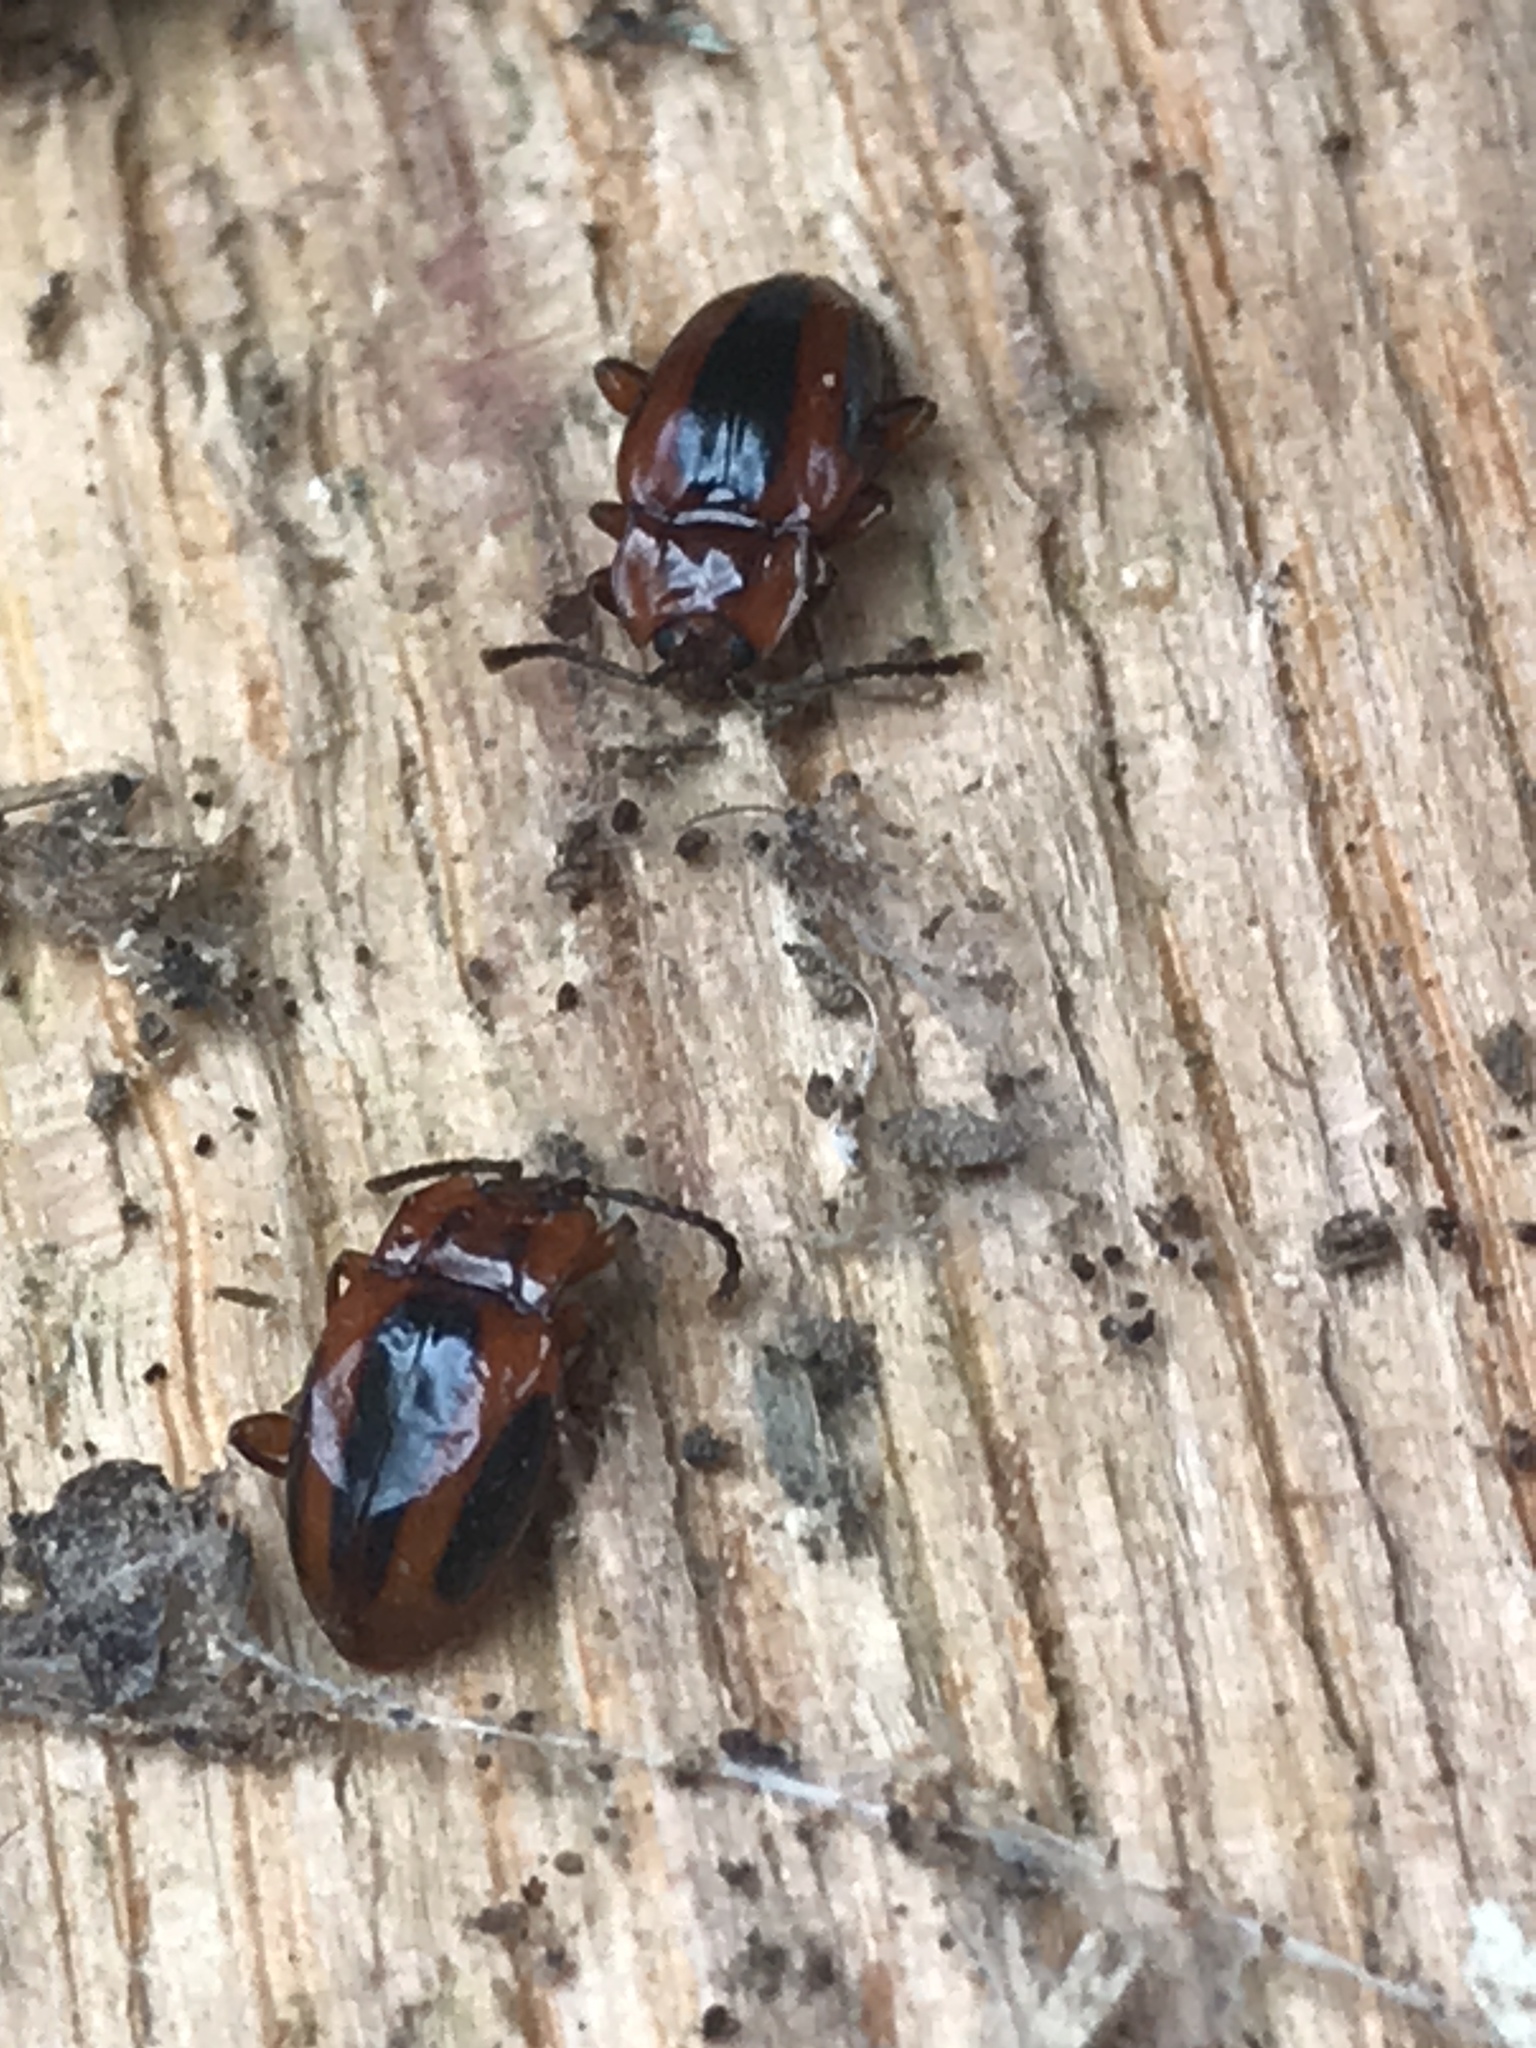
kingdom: Animalia
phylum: Arthropoda
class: Insecta
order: Coleoptera
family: Endomychidae
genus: Aphorista
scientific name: Aphorista vittata
